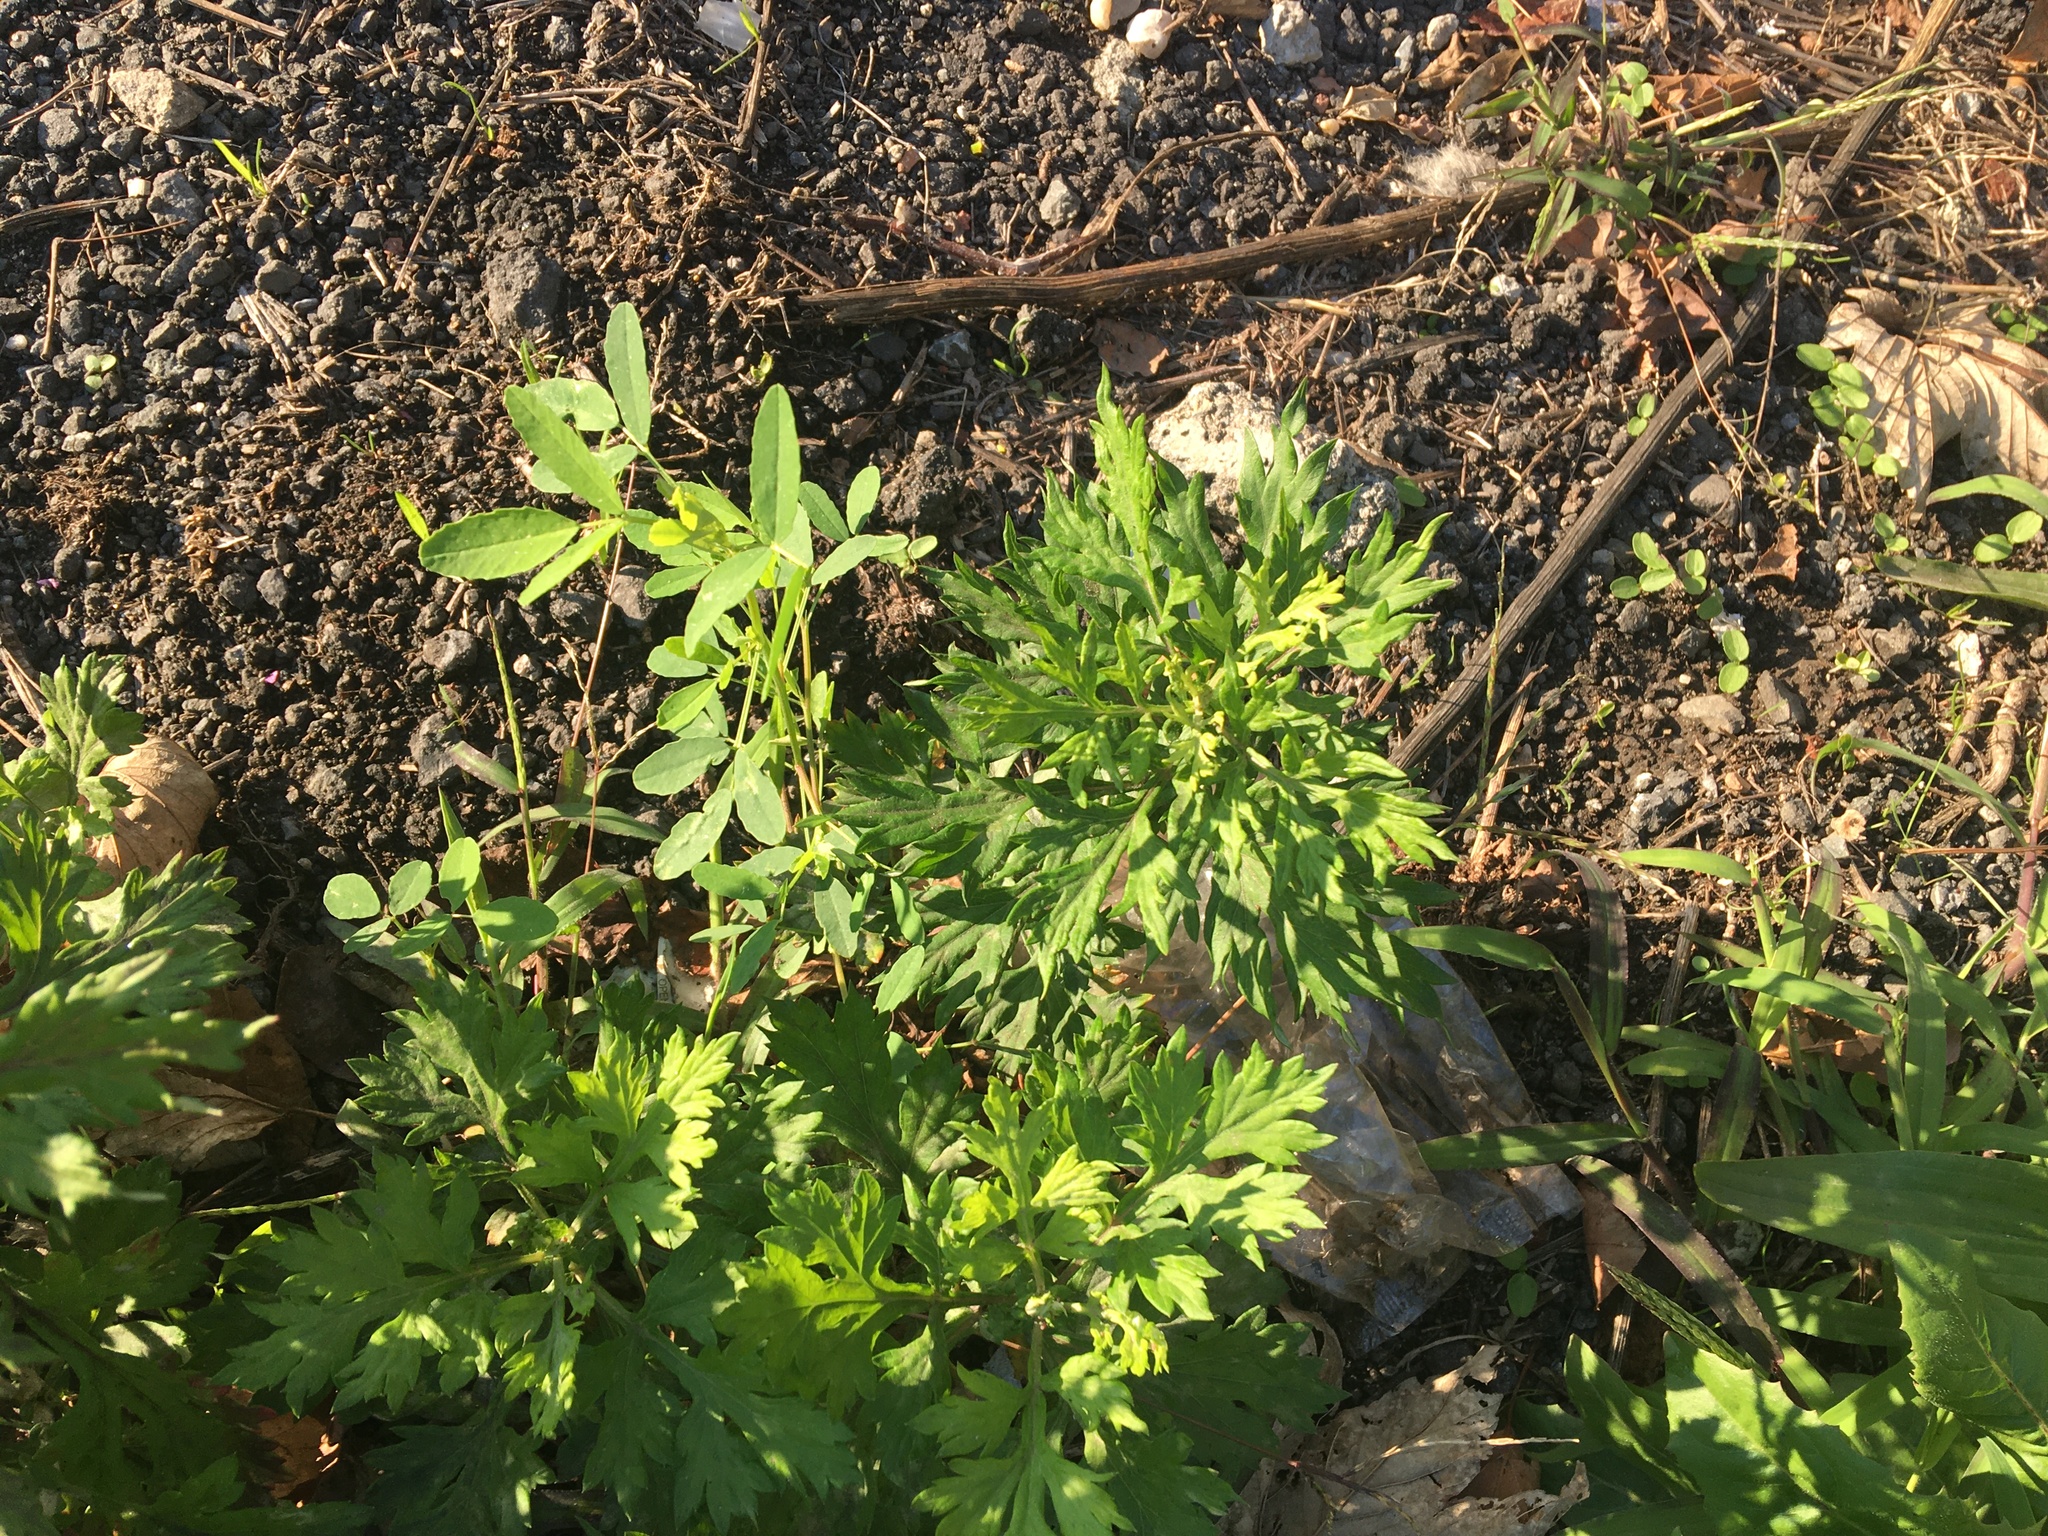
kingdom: Plantae
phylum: Tracheophyta
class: Magnoliopsida
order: Asterales
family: Asteraceae
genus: Artemisia
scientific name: Artemisia vulgaris
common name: Mugwort
